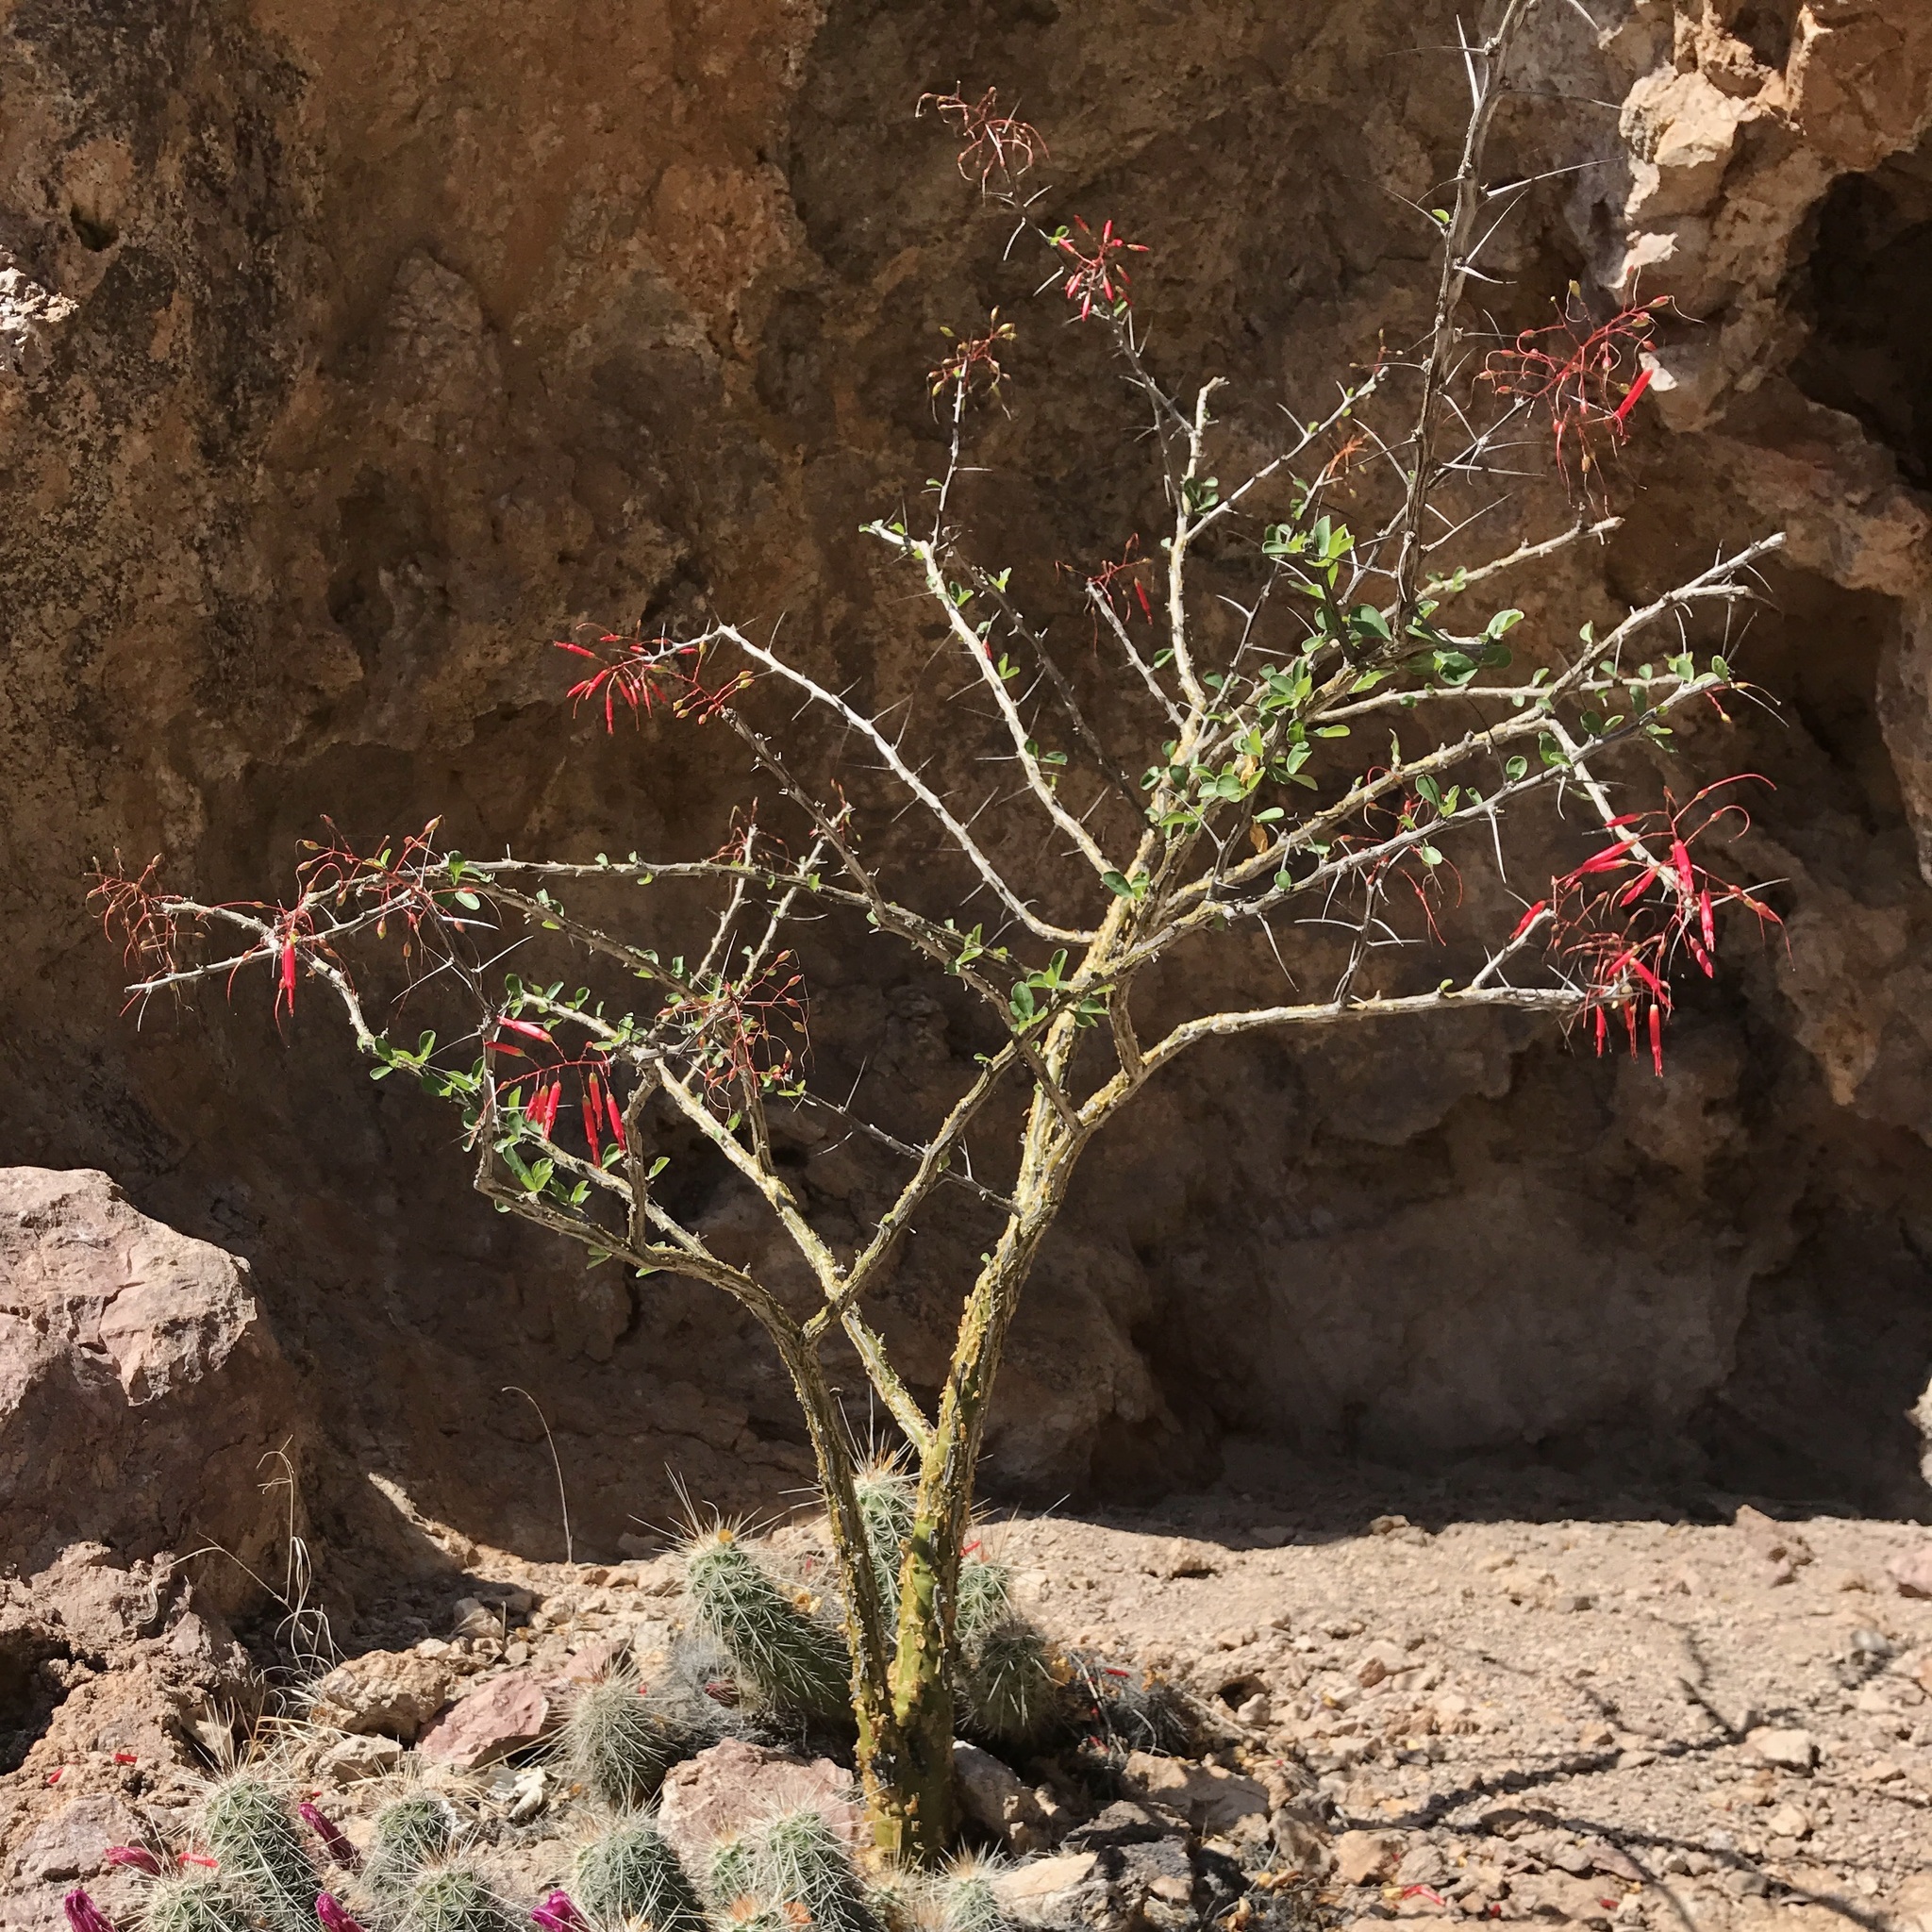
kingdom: Plantae
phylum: Tracheophyta
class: Magnoliopsida
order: Ericales
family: Fouquieriaceae
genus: Fouquieria
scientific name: Fouquieria macdougalii
